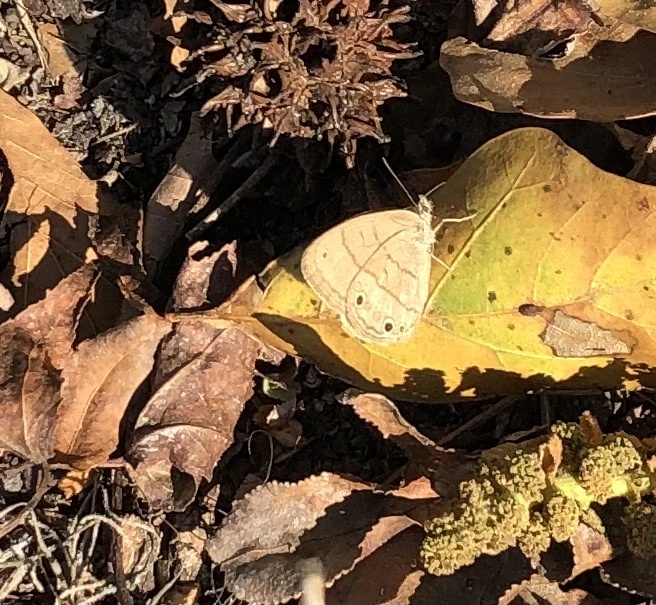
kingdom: Animalia
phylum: Arthropoda
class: Insecta
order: Lepidoptera
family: Nymphalidae
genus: Hermeuptychia
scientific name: Hermeuptychia hermes
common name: Hermes satyr
